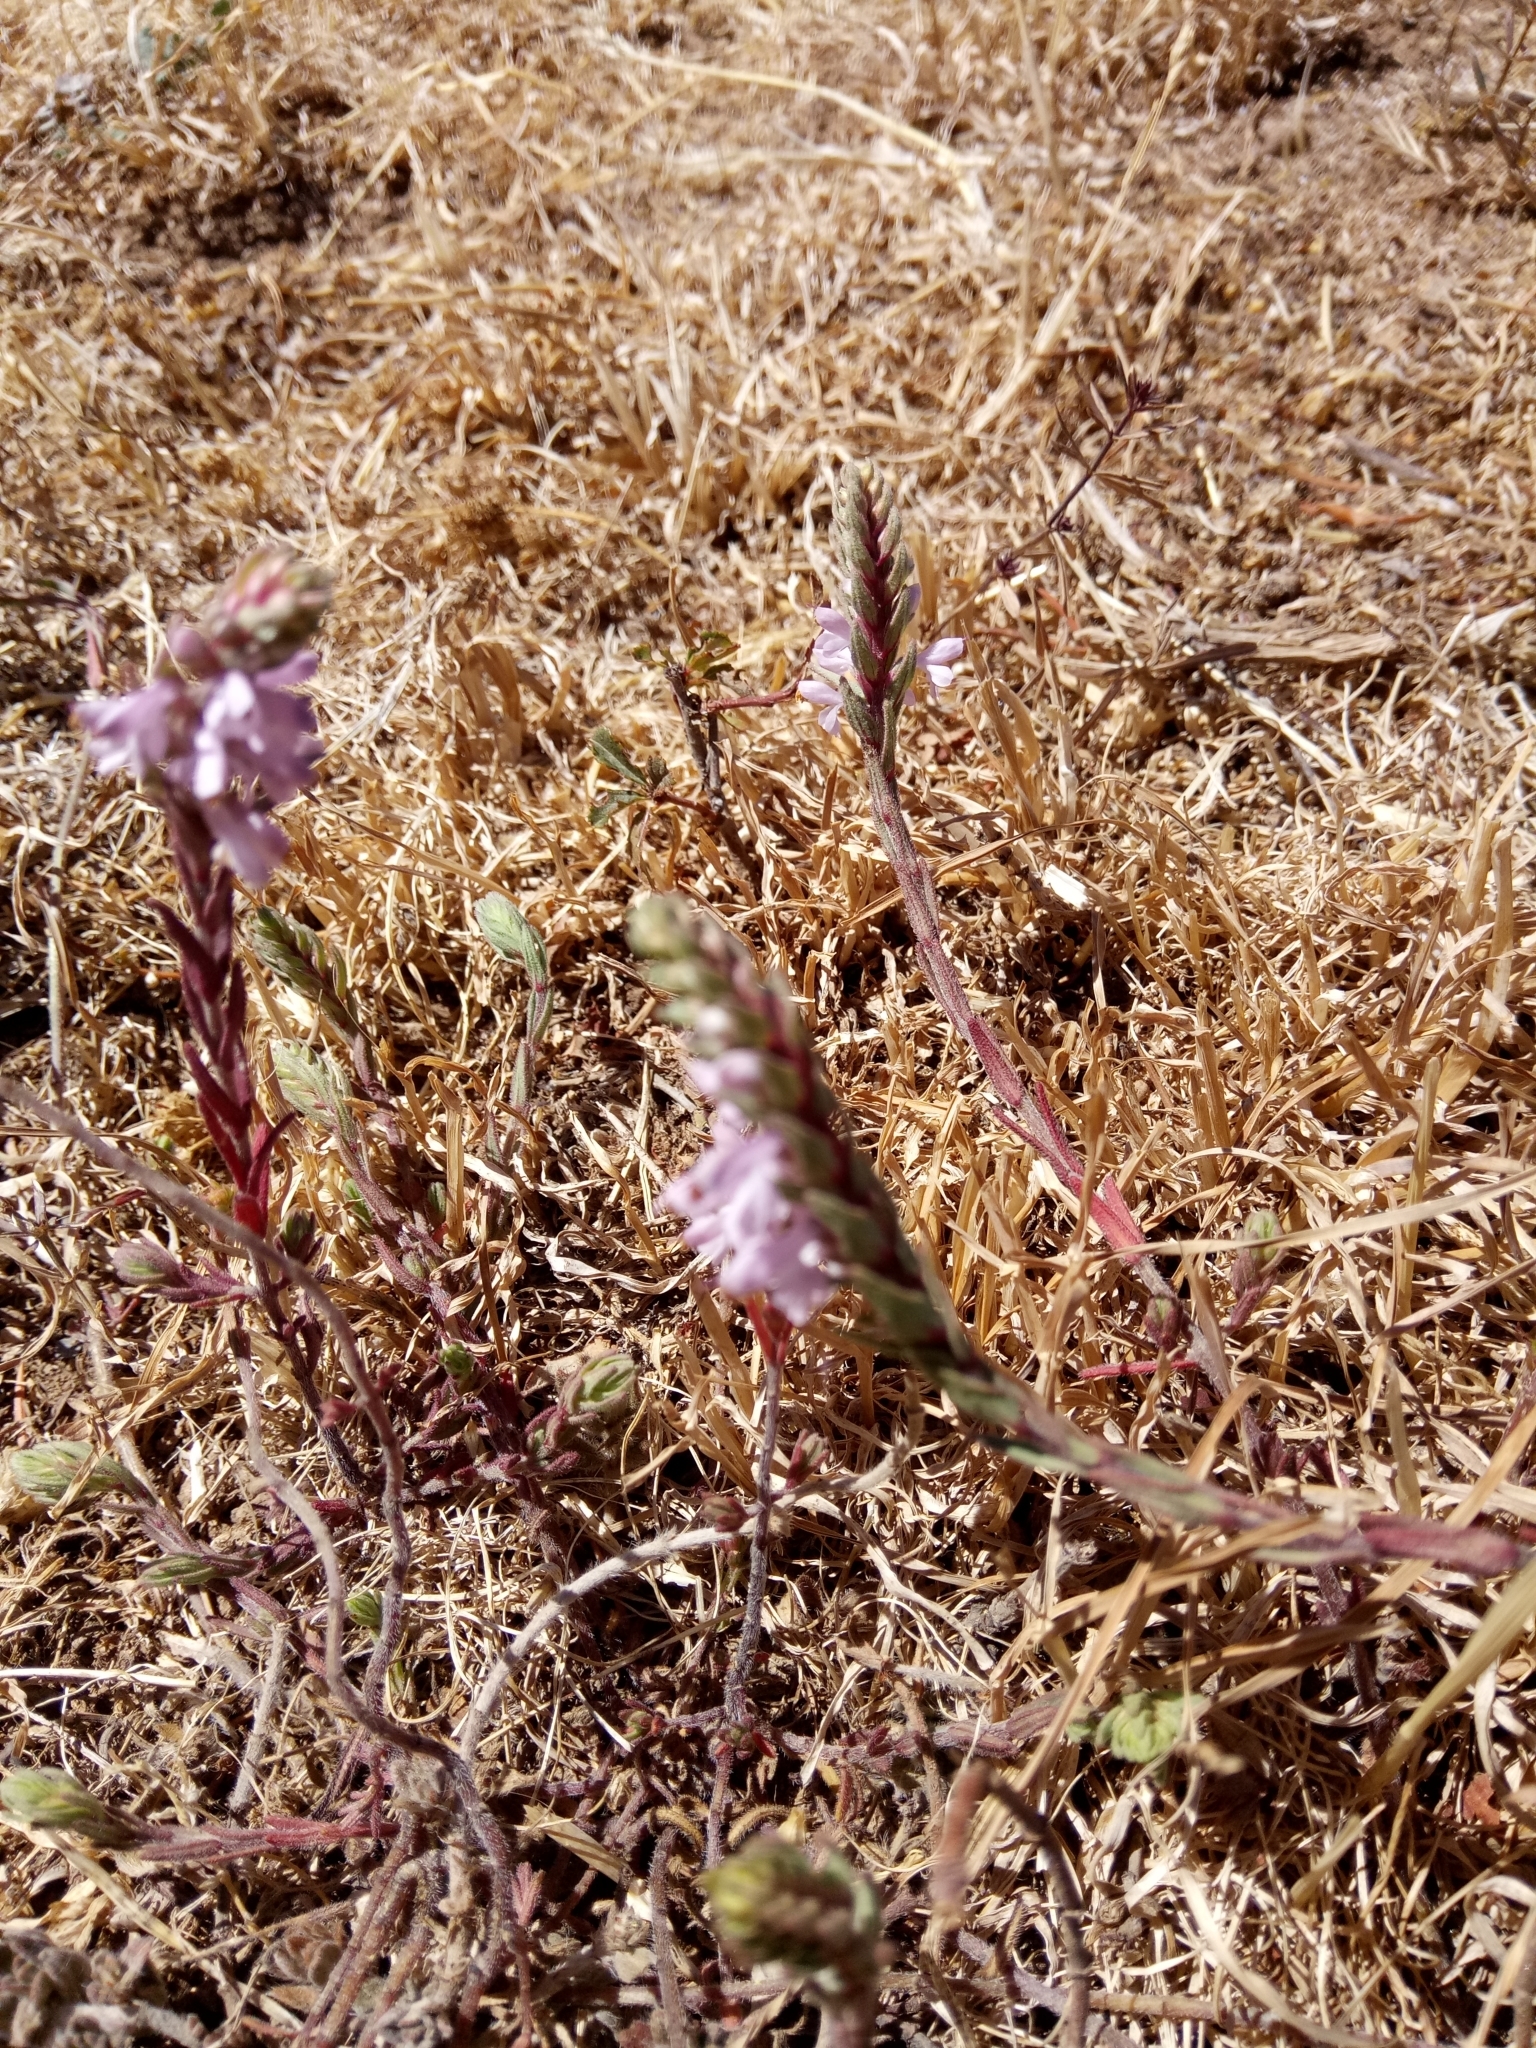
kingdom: Plantae
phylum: Tracheophyta
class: Magnoliopsida
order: Lamiales
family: Orobanchaceae
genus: Odontites
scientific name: Odontites violaceus
